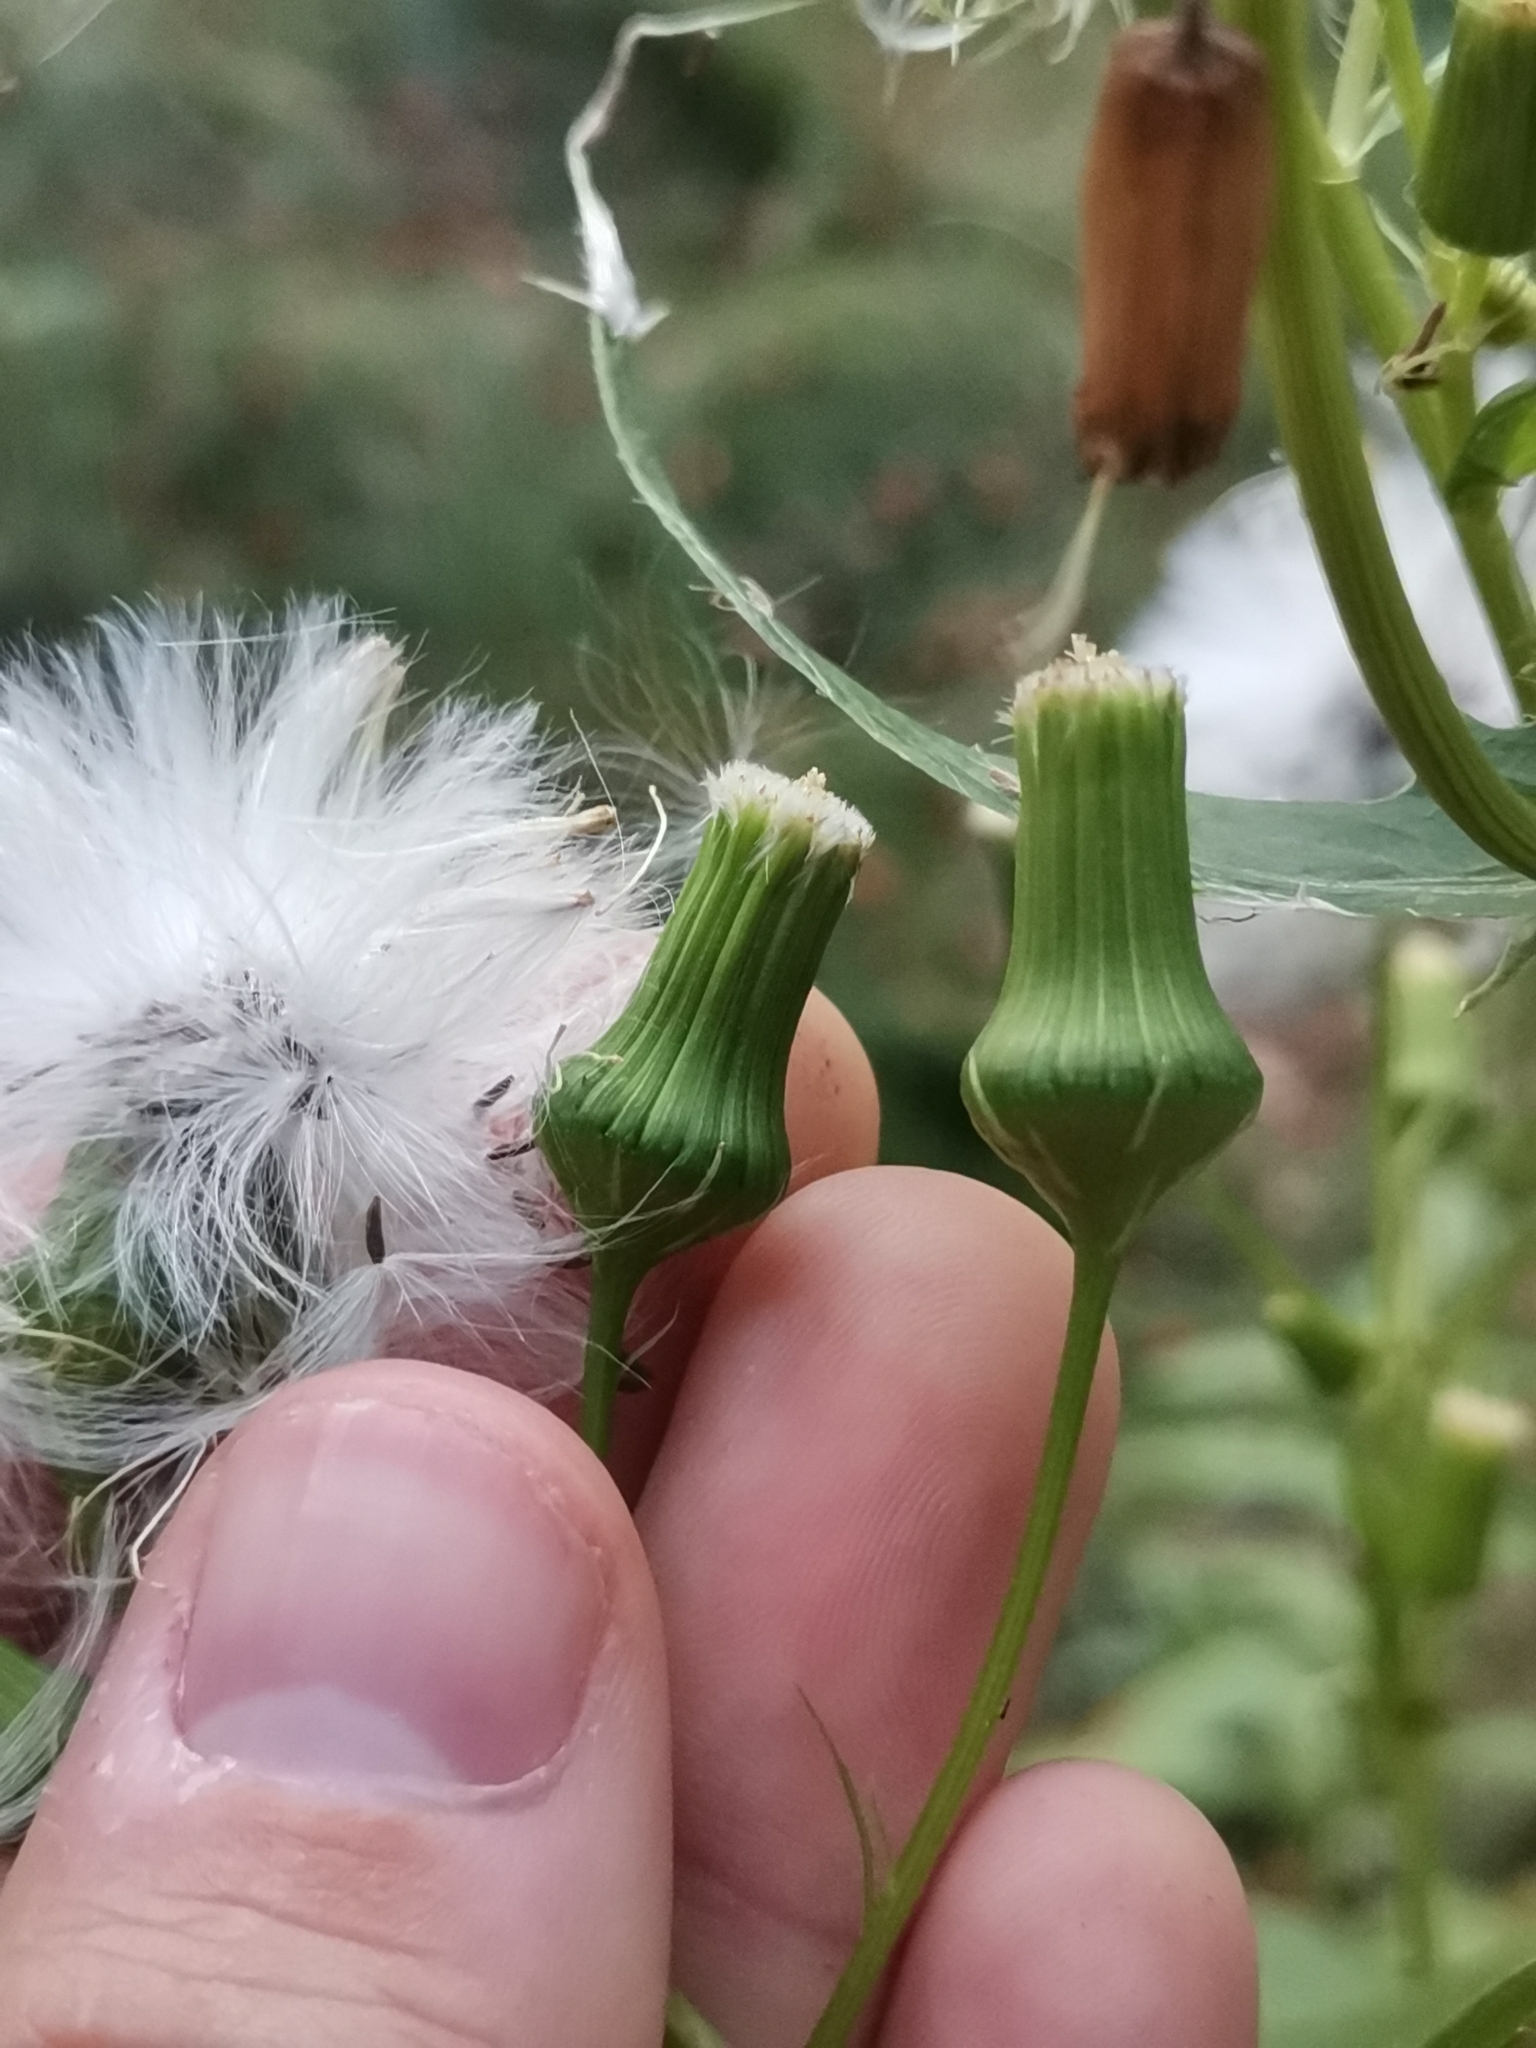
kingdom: Plantae
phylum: Tracheophyta
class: Magnoliopsida
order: Asterales
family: Asteraceae
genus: Erechtites
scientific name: Erechtites hieraciifolius
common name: American burnweed
